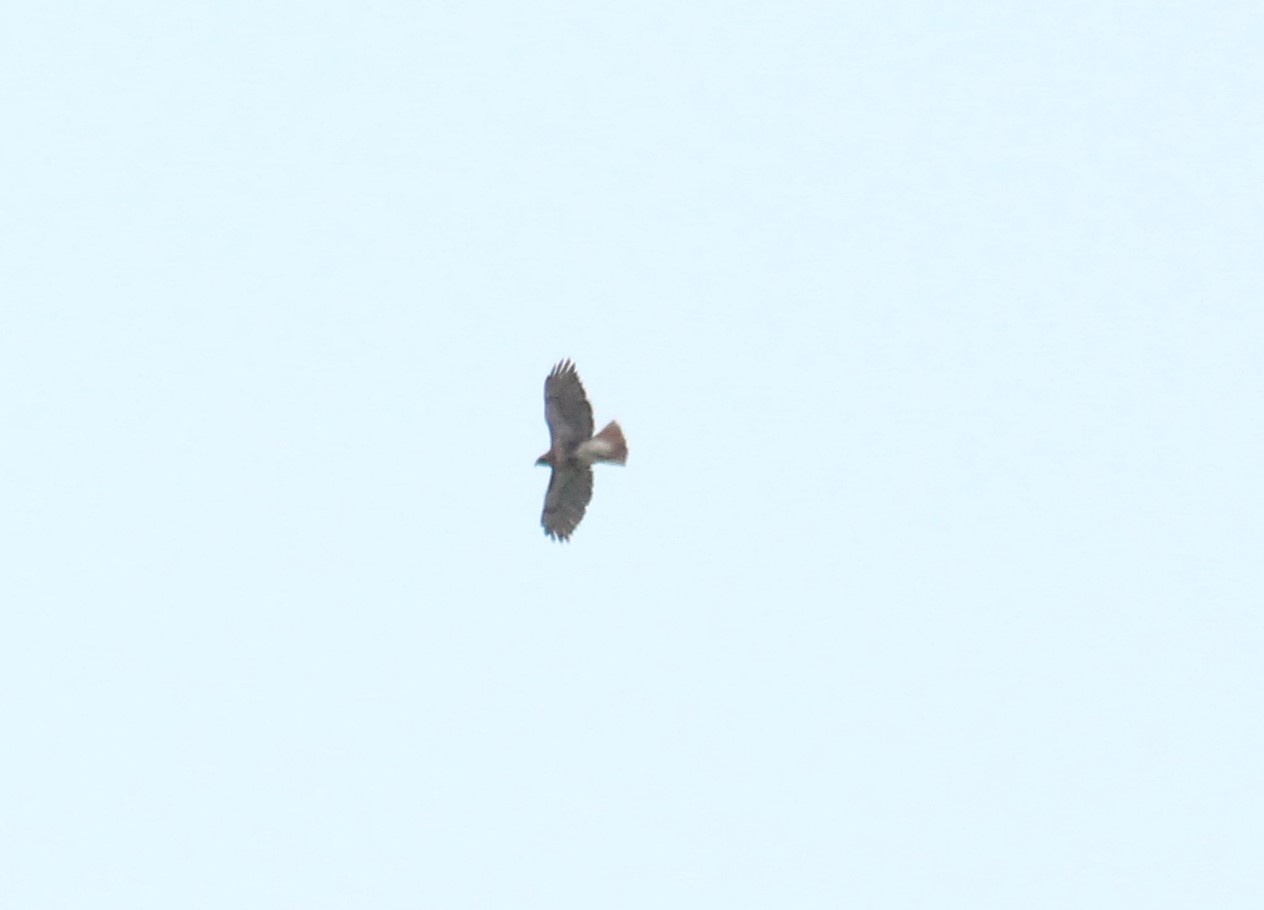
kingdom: Animalia
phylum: Chordata
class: Aves
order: Accipitriformes
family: Accipitridae
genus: Buteo
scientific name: Buteo jamaicensis
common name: Red-tailed hawk
